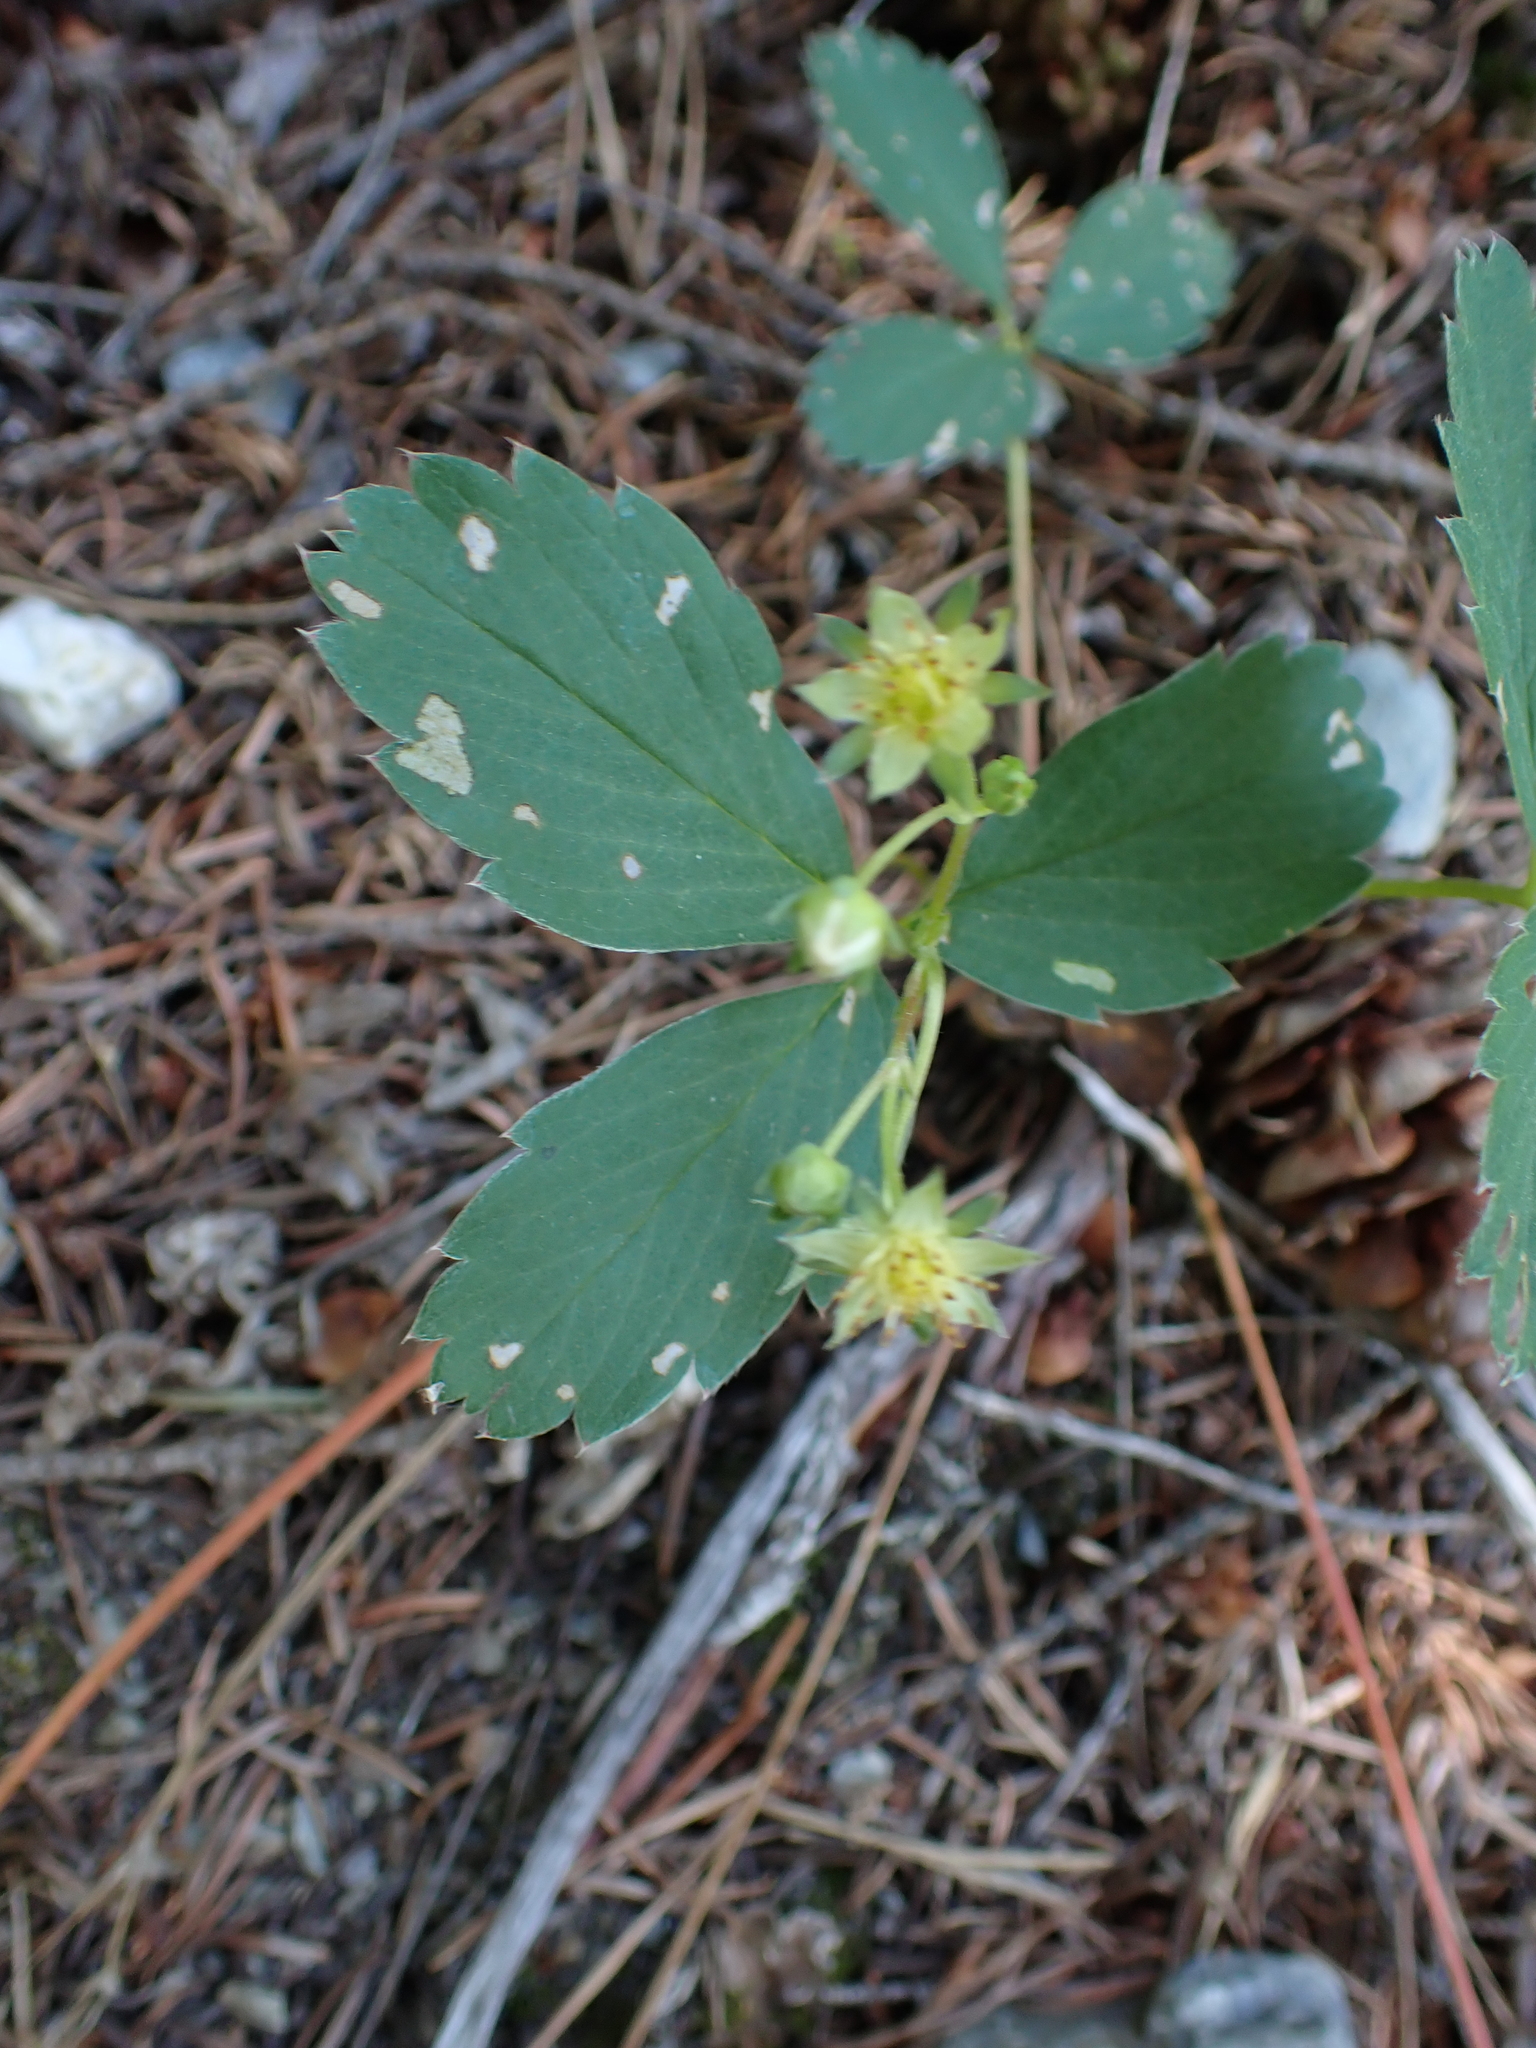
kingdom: Plantae
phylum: Tracheophyta
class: Magnoliopsida
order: Rosales
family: Rosaceae
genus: Fragaria
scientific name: Fragaria virginiana
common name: Thickleaved wild strawberry
